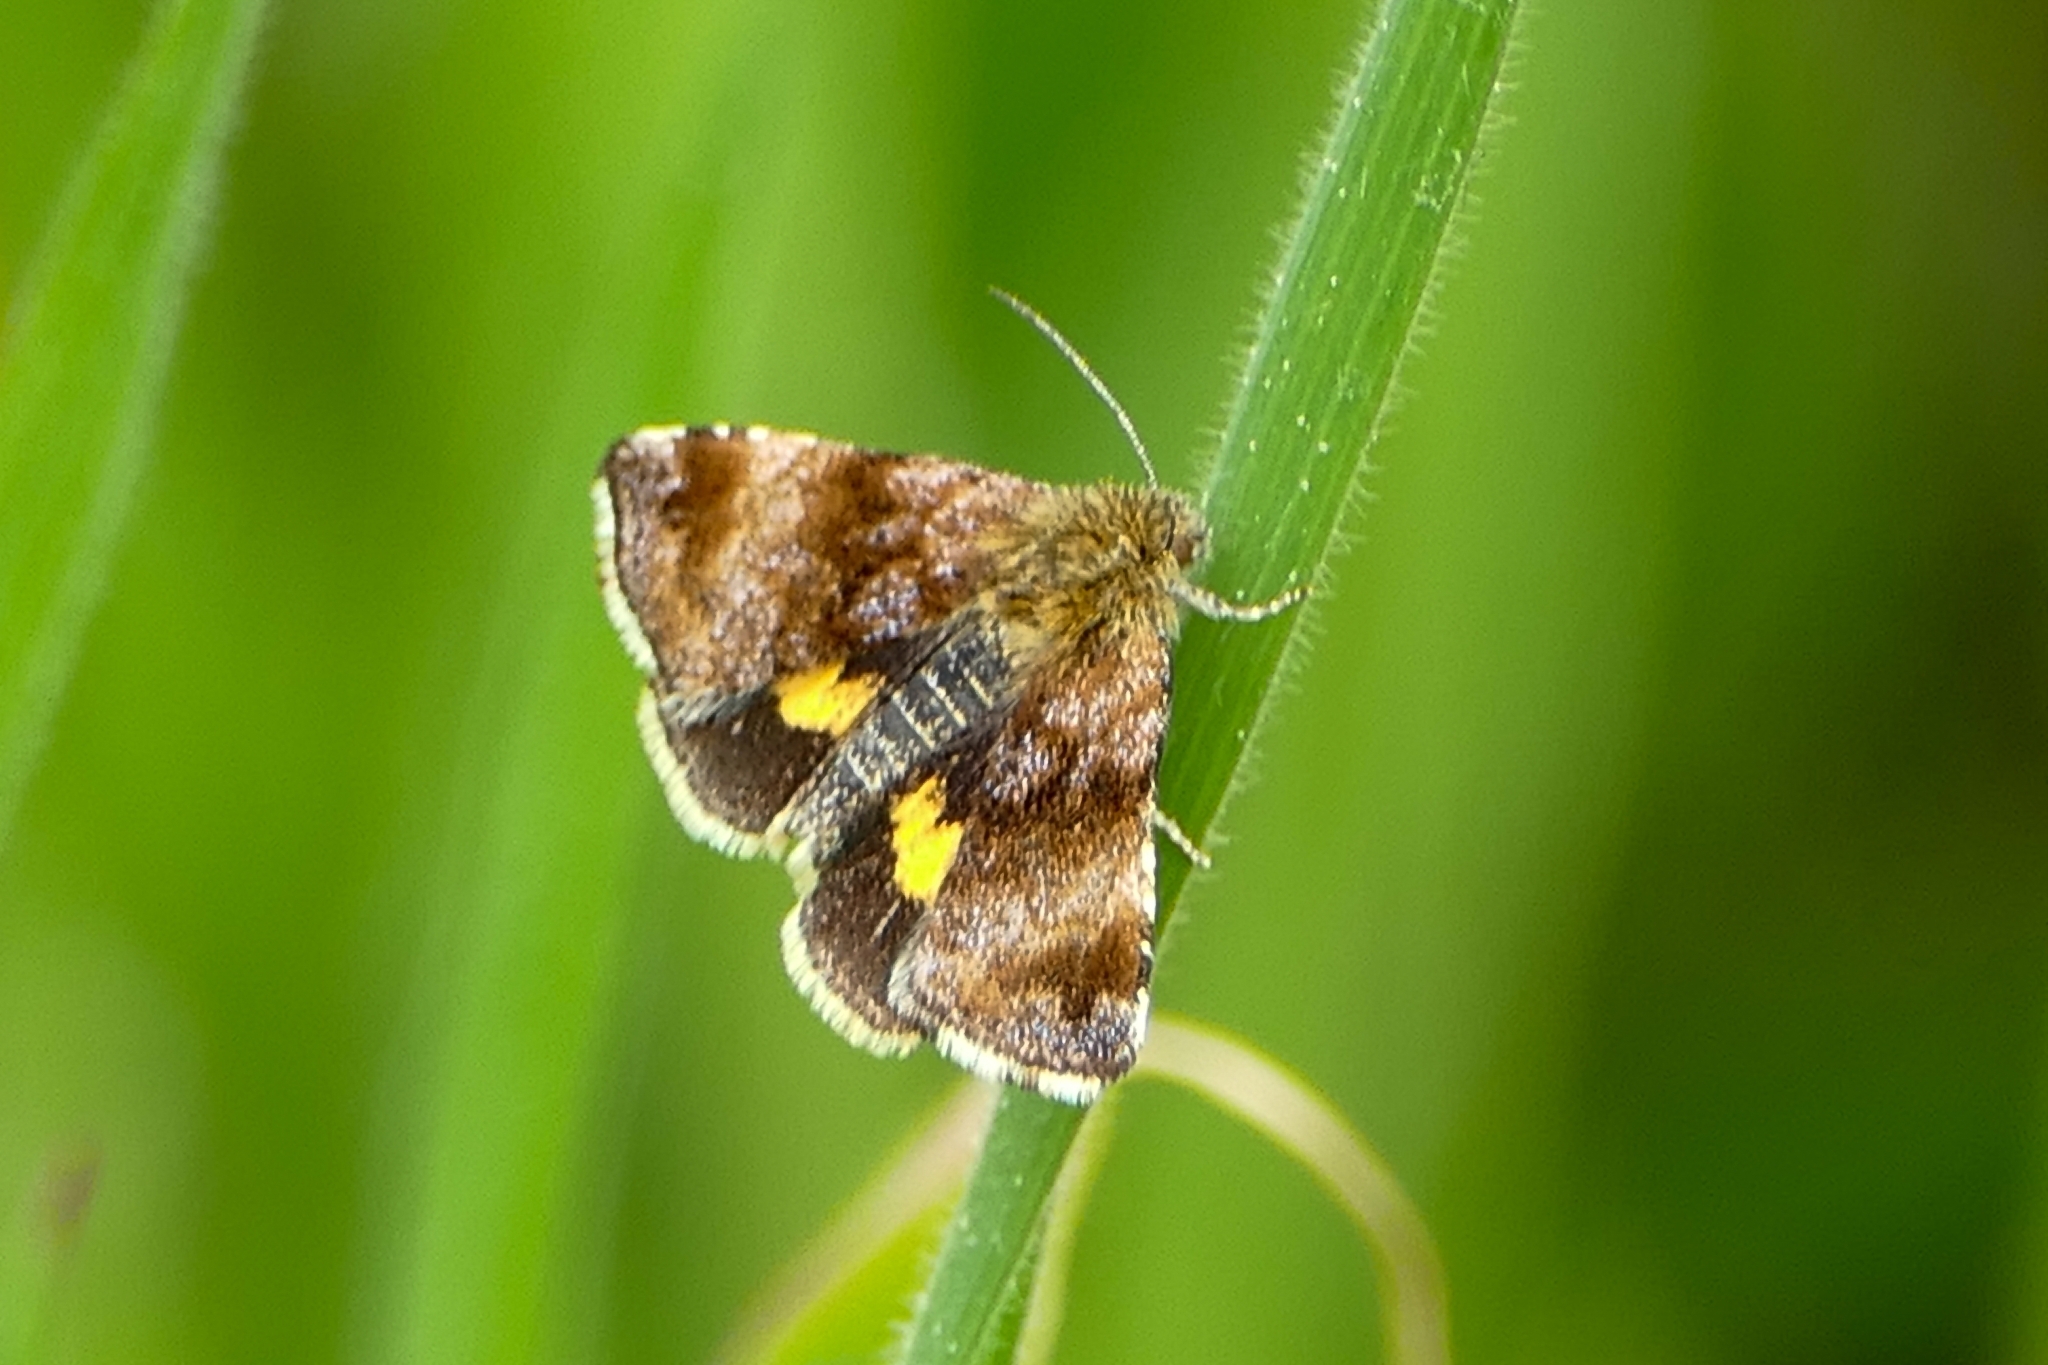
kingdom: Animalia
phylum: Arthropoda
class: Insecta
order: Lepidoptera
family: Noctuidae
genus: Panemeria
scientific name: Panemeria tenebrata
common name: Small yellow underwing
